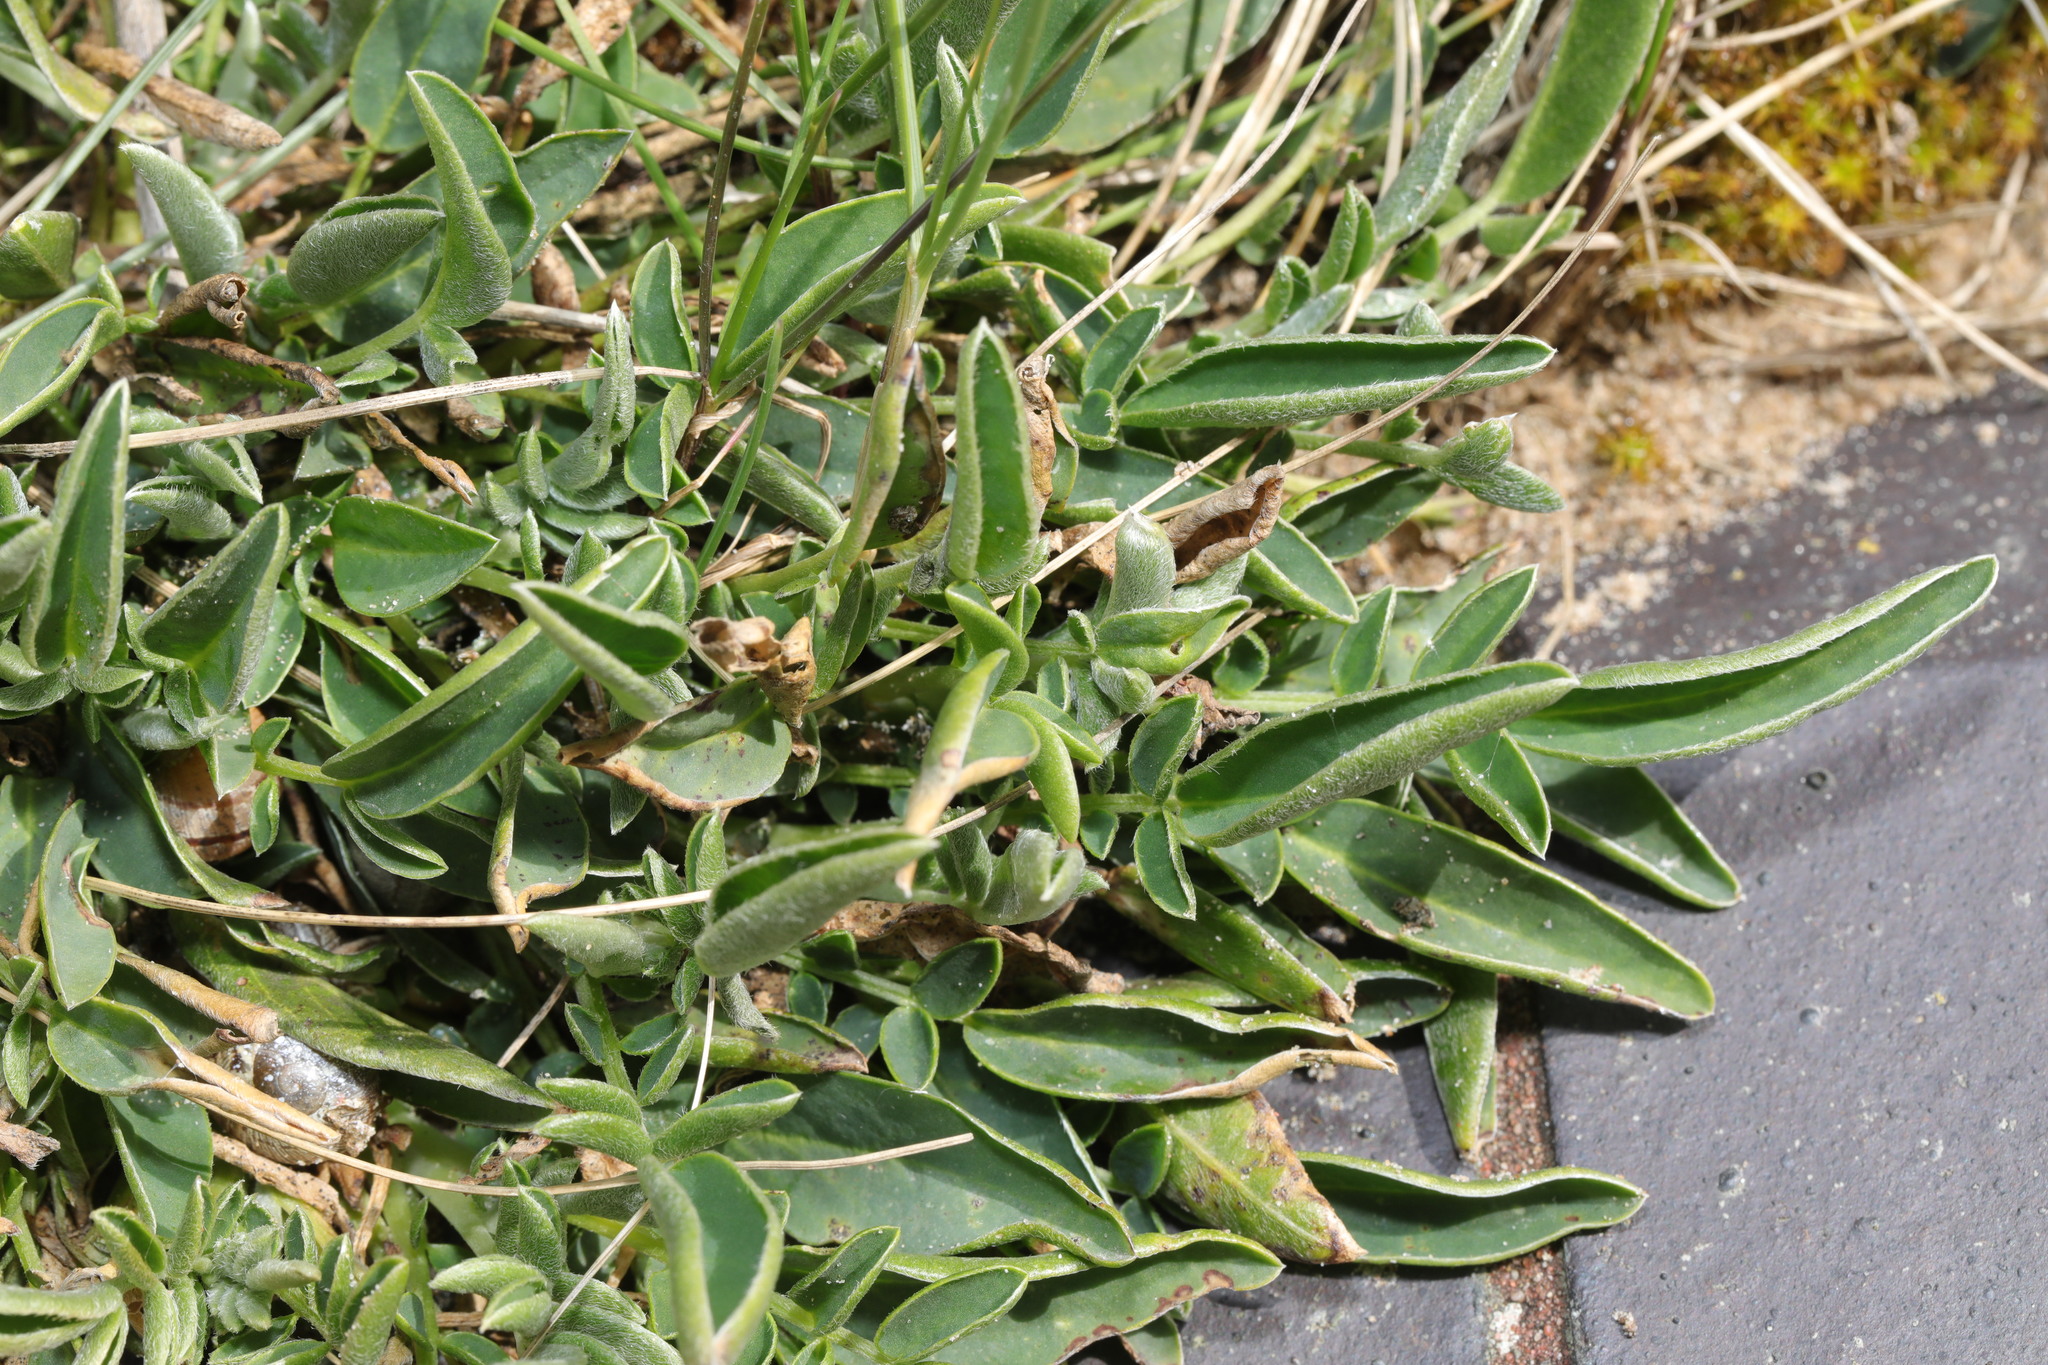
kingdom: Plantae
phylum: Tracheophyta
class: Magnoliopsida
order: Fabales
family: Fabaceae
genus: Anthyllis
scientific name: Anthyllis vulneraria
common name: Kidney vetch
